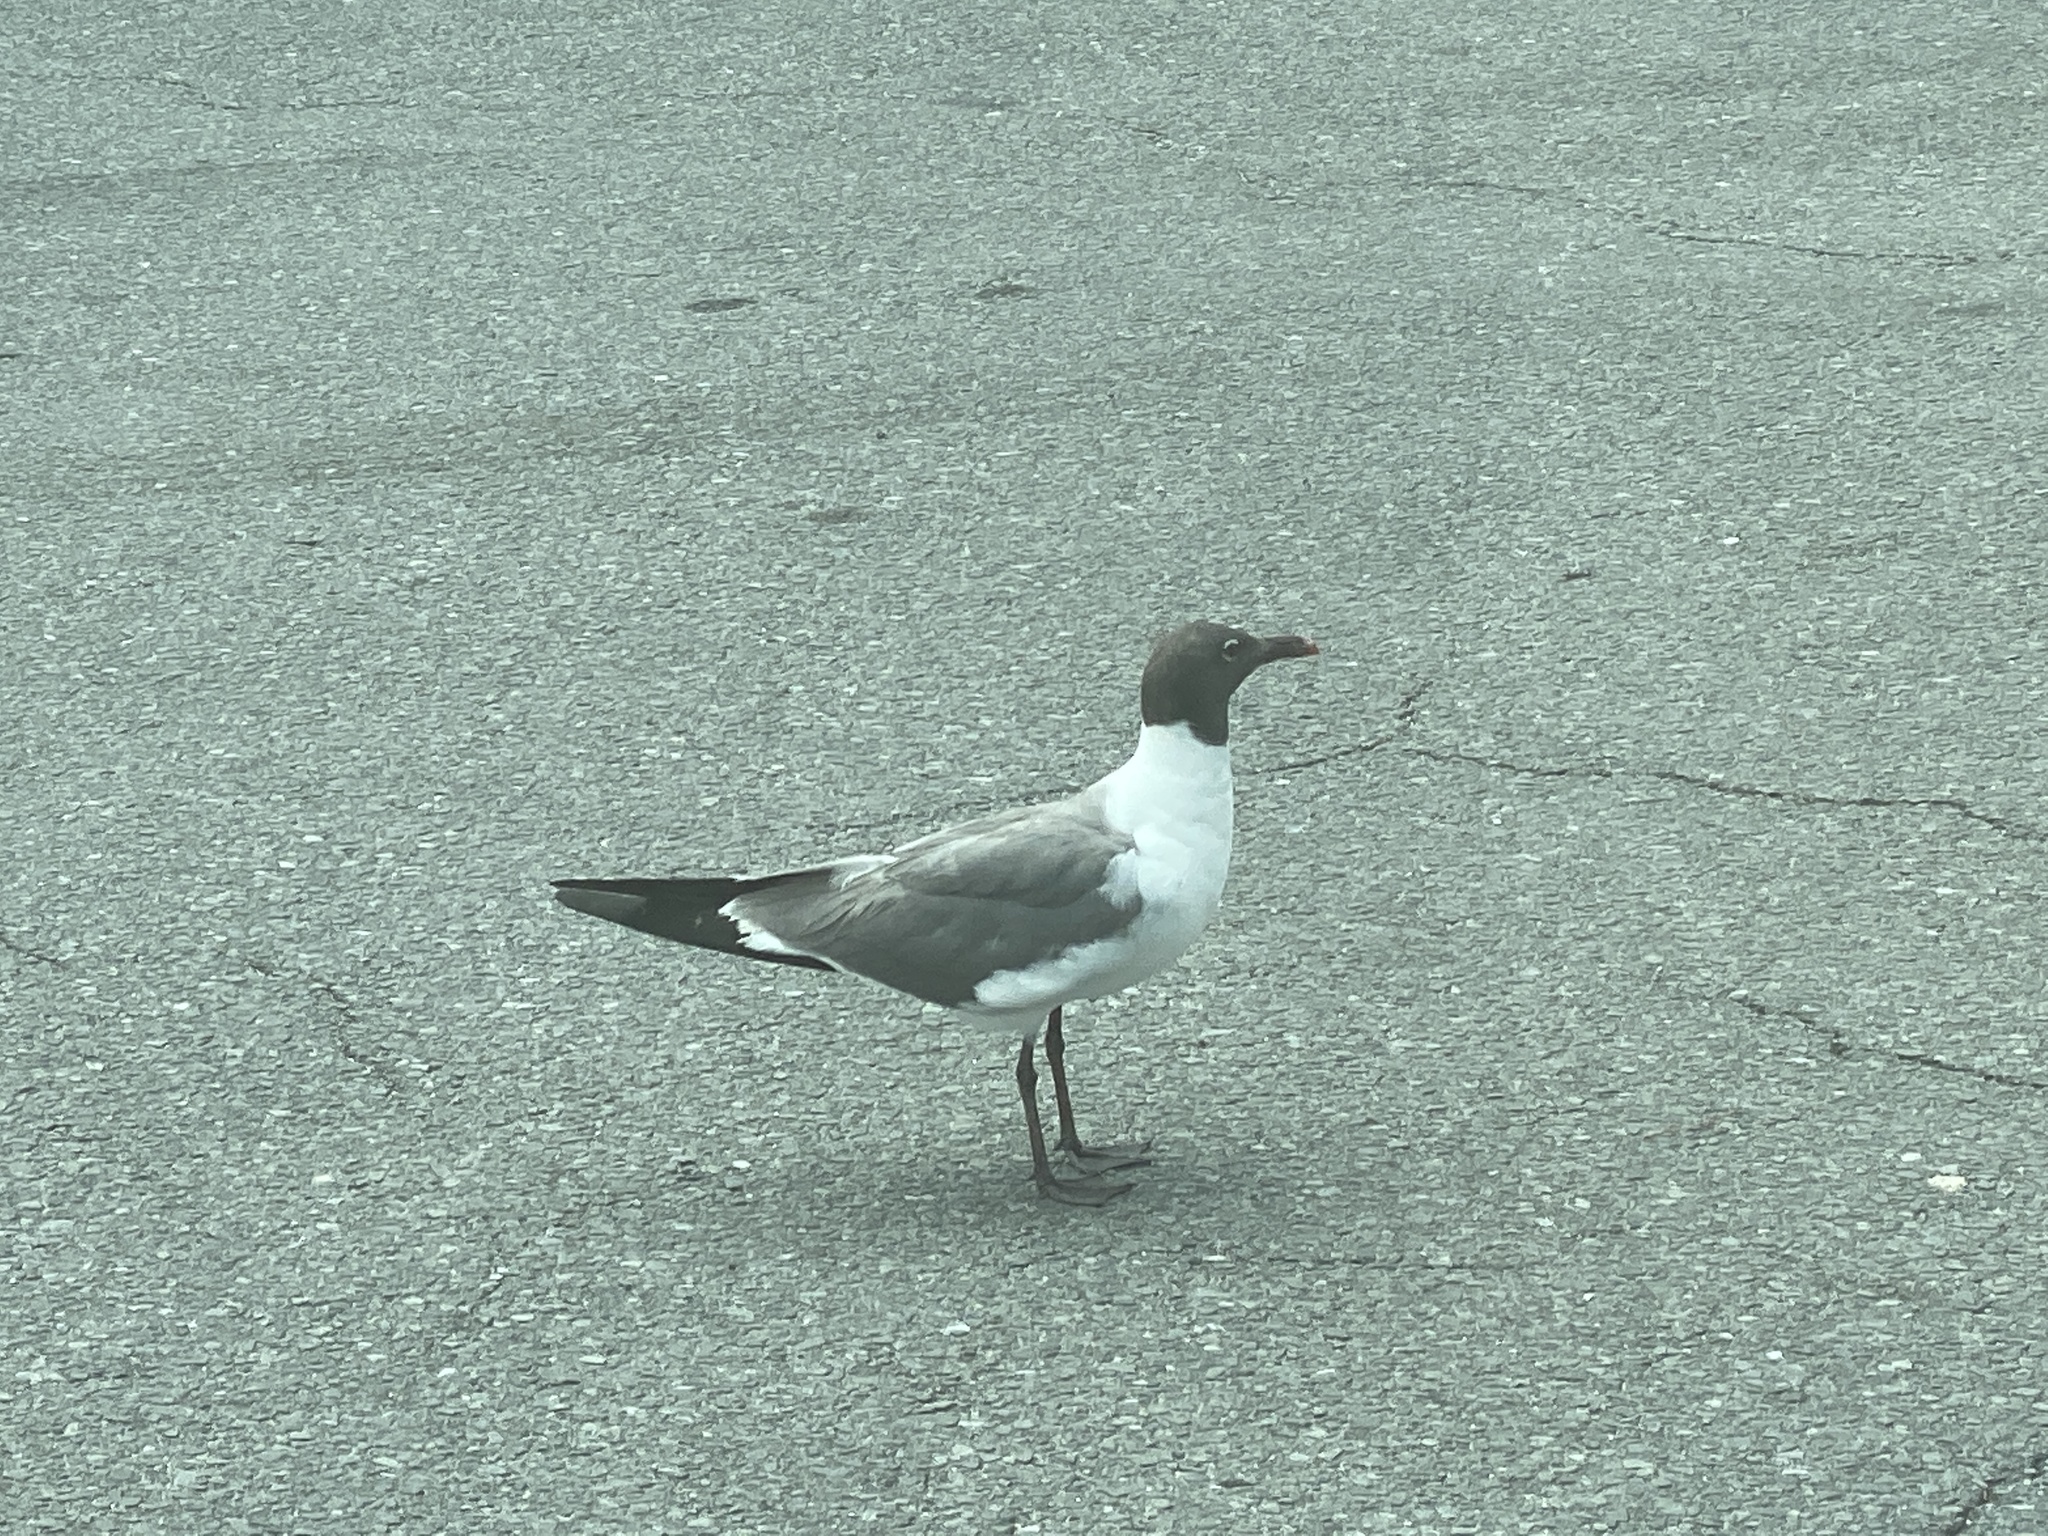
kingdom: Animalia
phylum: Chordata
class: Aves
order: Charadriiformes
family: Laridae
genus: Leucophaeus
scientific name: Leucophaeus atricilla
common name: Laughing gull
